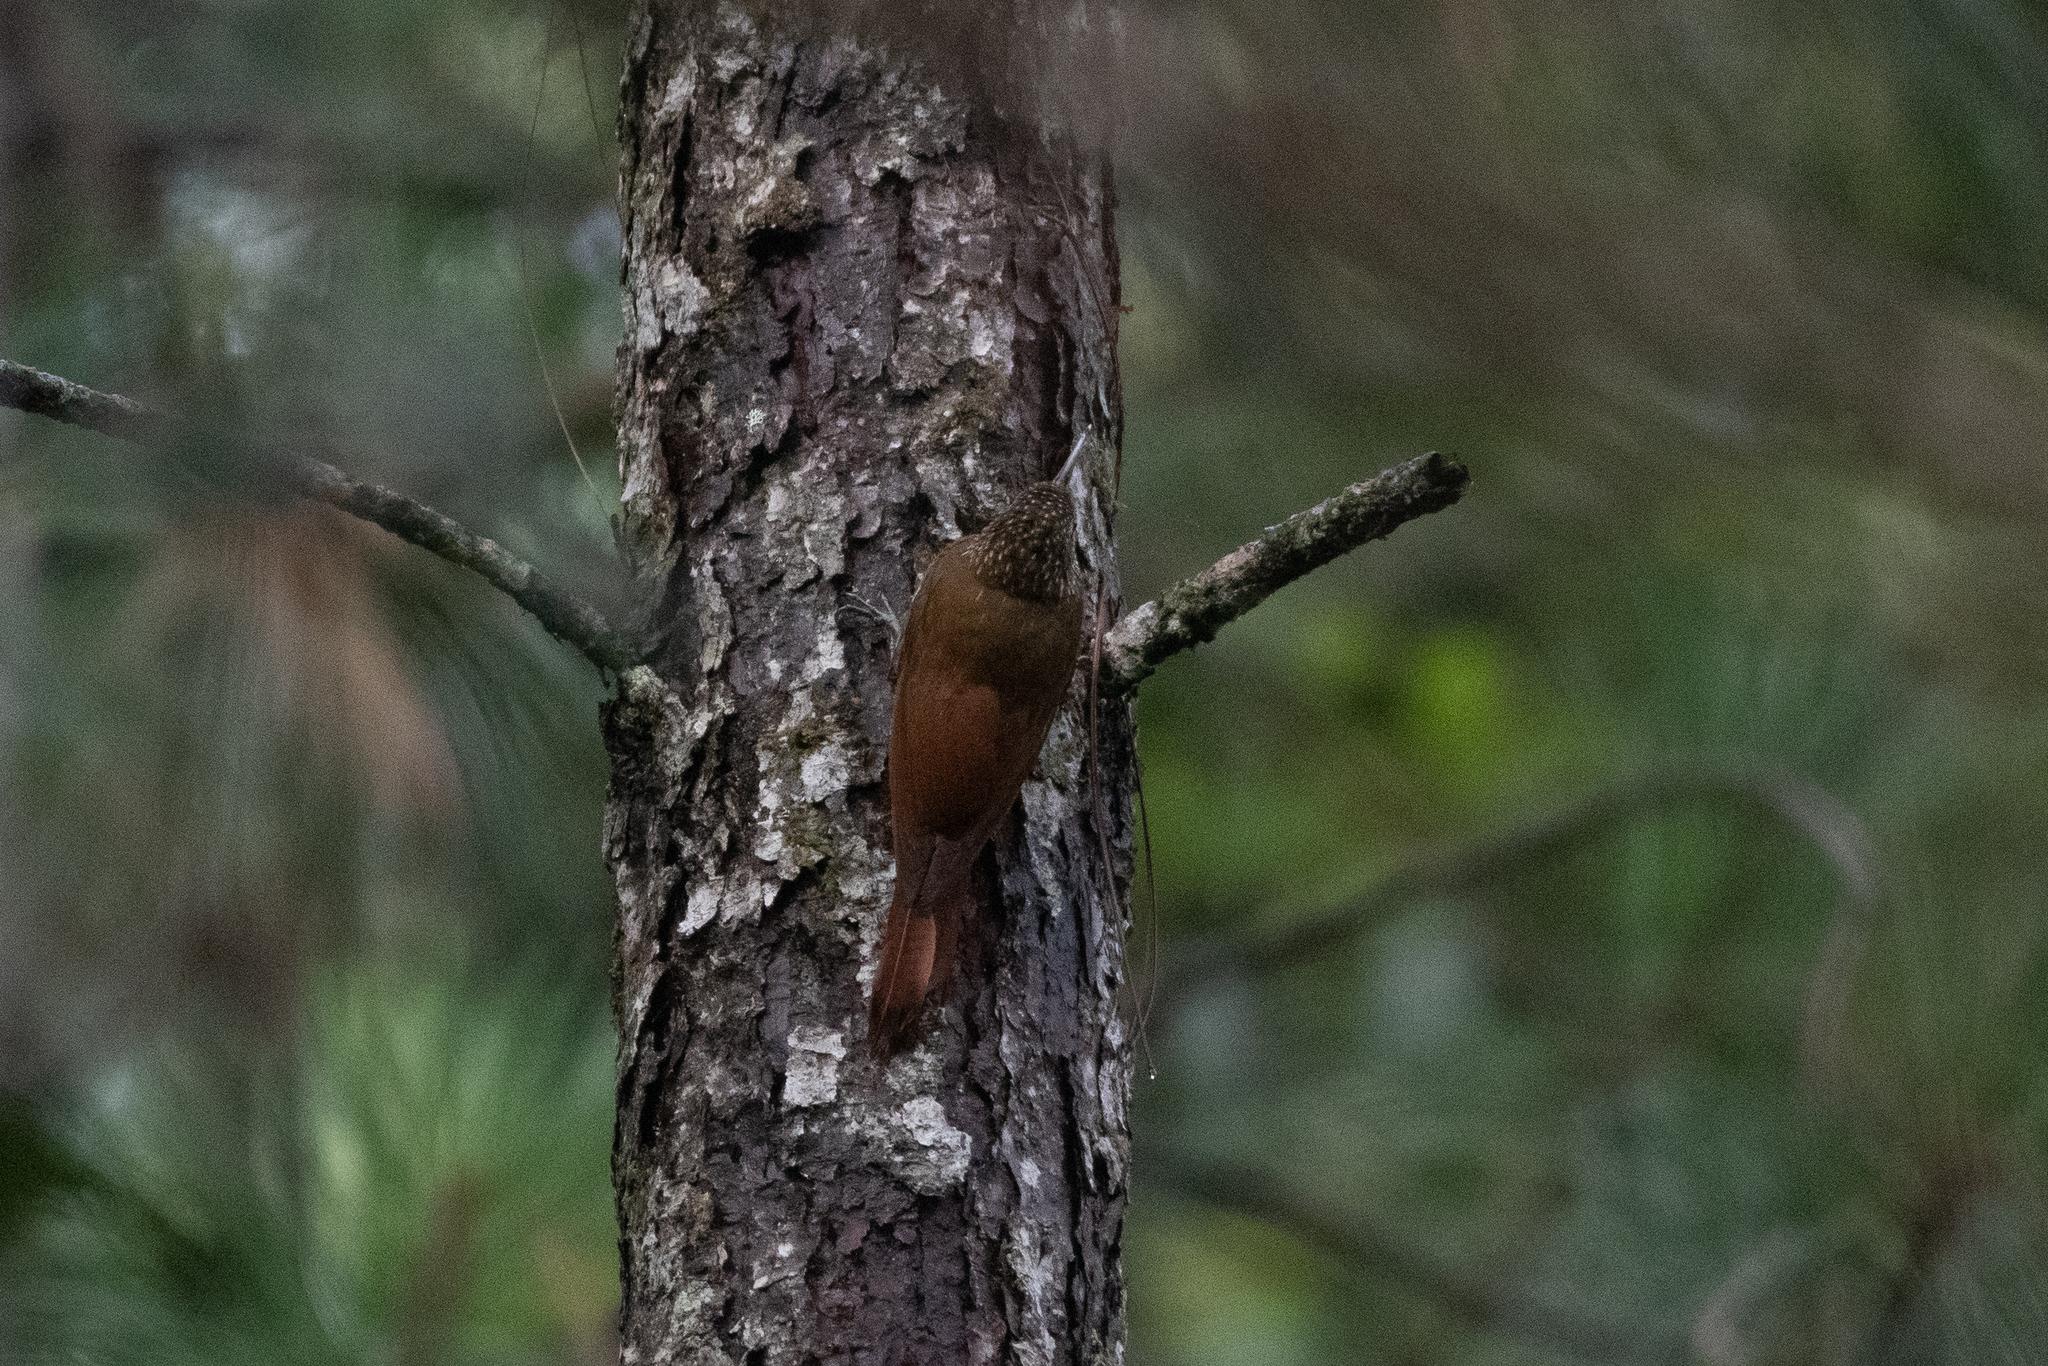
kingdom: Animalia
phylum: Chordata
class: Aves
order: Passeriformes
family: Furnariidae
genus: Lepidocolaptes
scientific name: Lepidocolaptes affinis
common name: Spot-crowned woodcreeper
